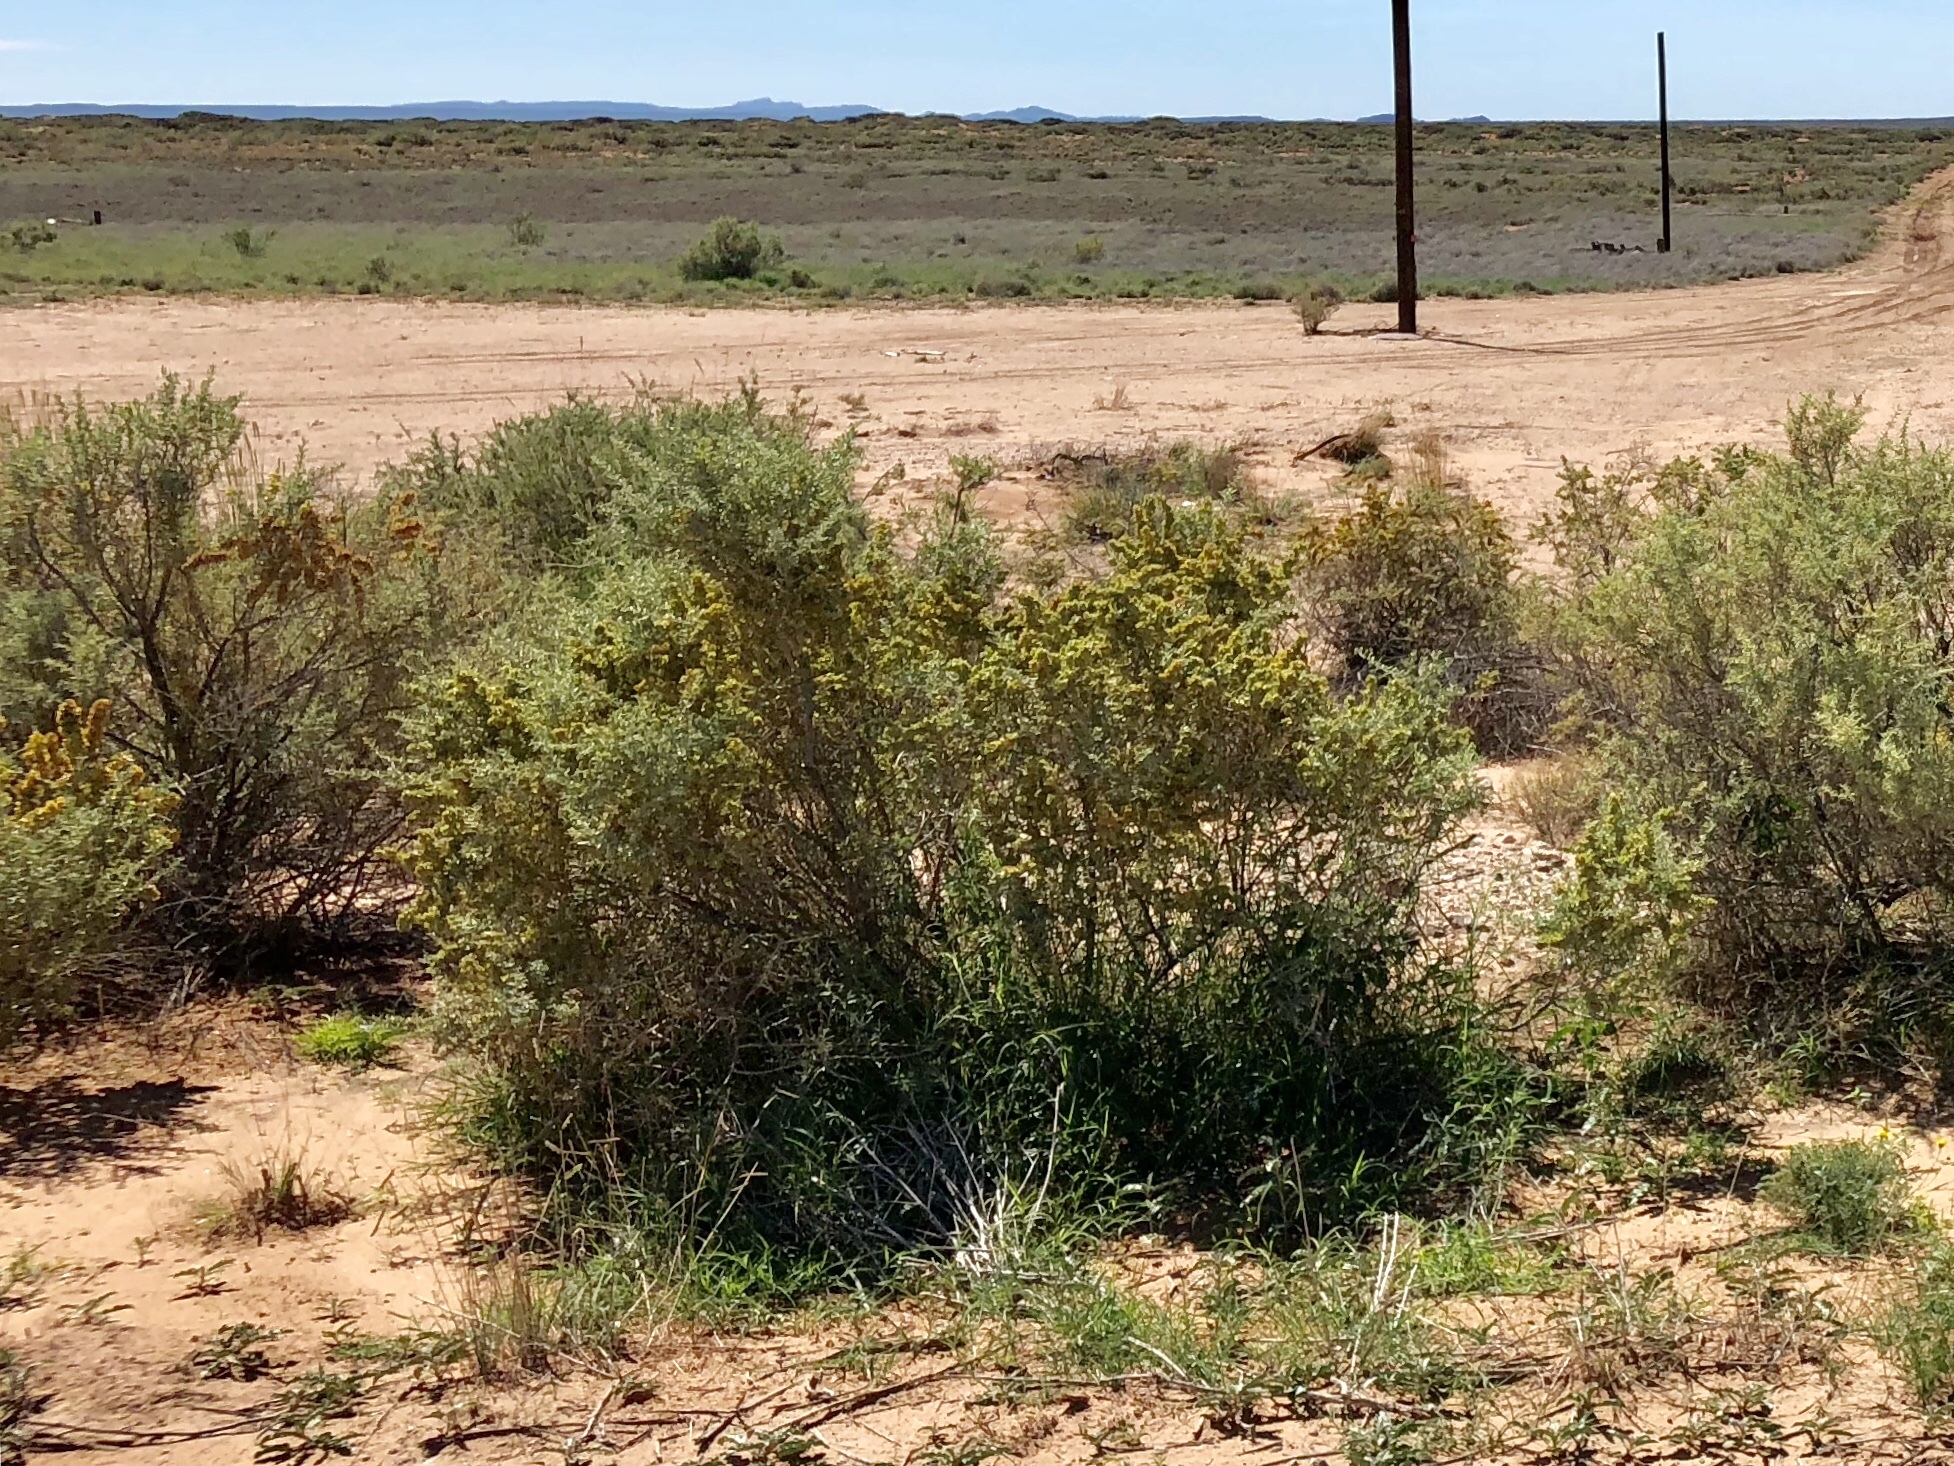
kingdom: Plantae
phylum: Tracheophyta
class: Magnoliopsida
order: Caryophyllales
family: Amaranthaceae
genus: Atriplex
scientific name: Atriplex canescens
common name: Four-wing saltbush
